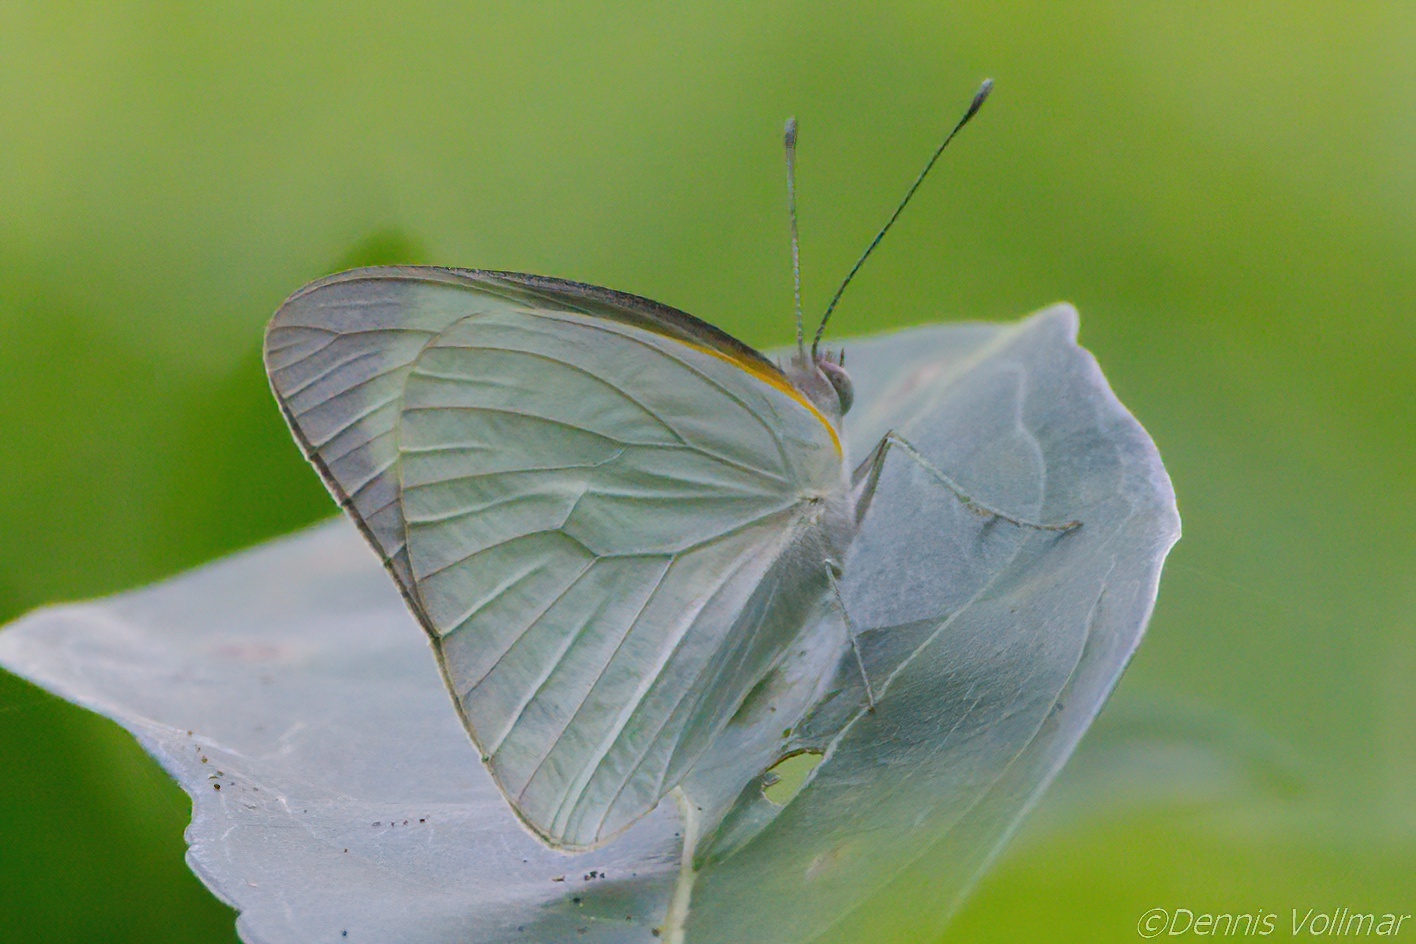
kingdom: Animalia
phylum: Arthropoda
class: Insecta
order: Lepidoptera
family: Pieridae
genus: Glutophrissa
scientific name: Glutophrissa drusilla
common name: Florida white
